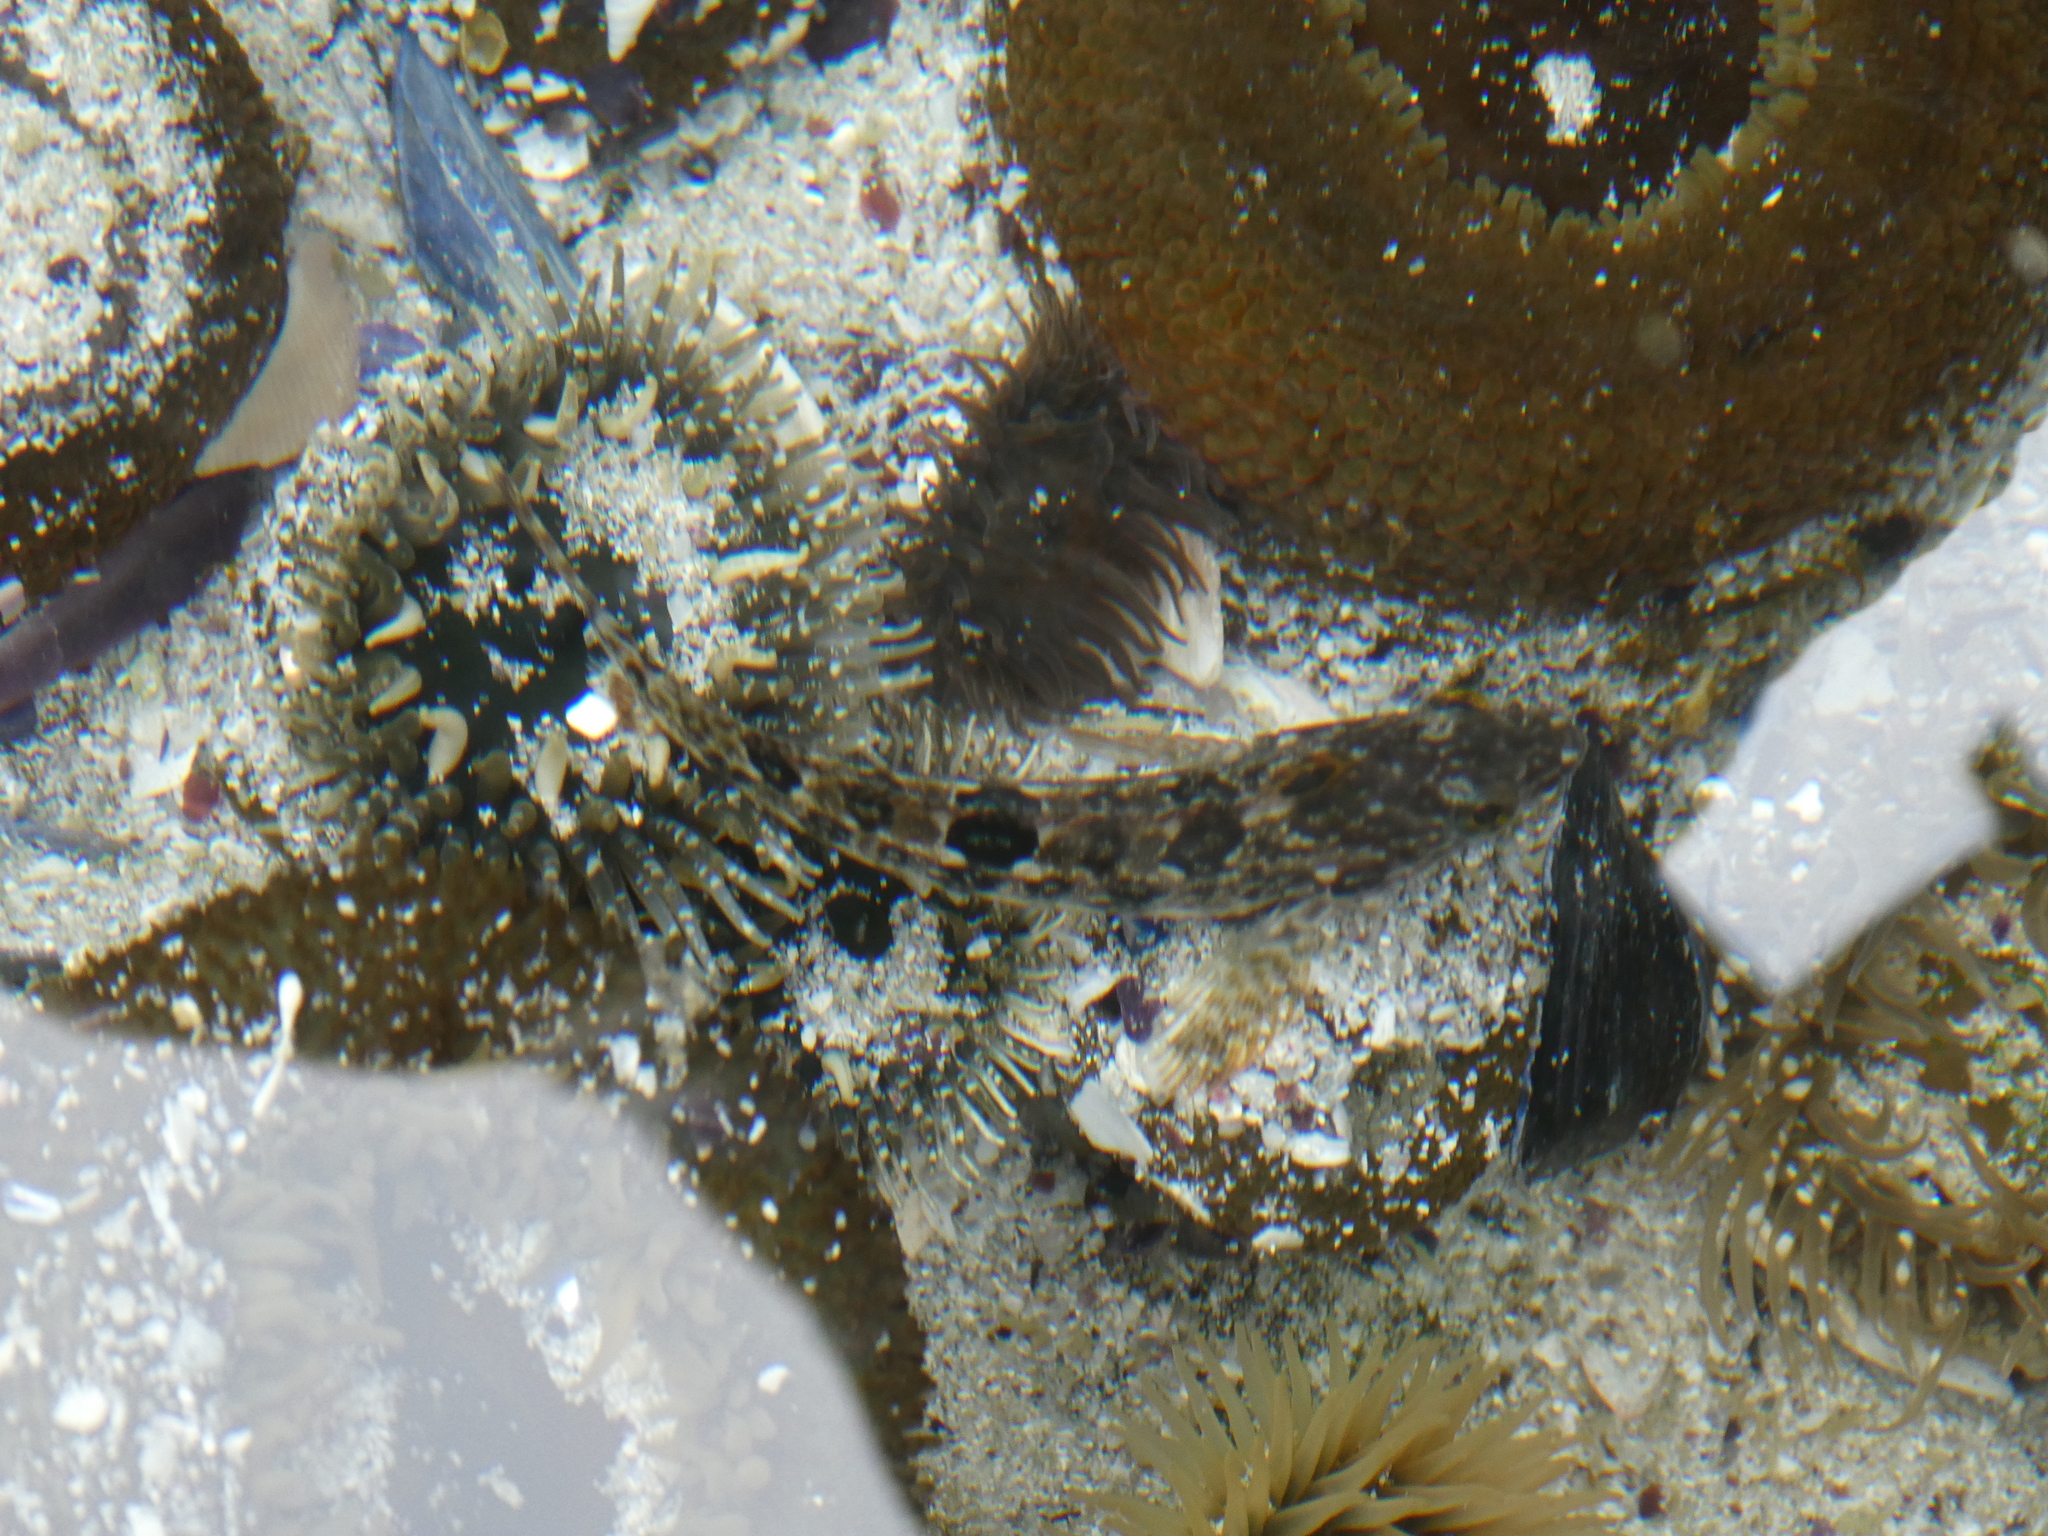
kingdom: Animalia
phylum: Chordata
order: Perciformes
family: Clinidae
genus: Clinus
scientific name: Clinus superciliosus
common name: Super klipfish
